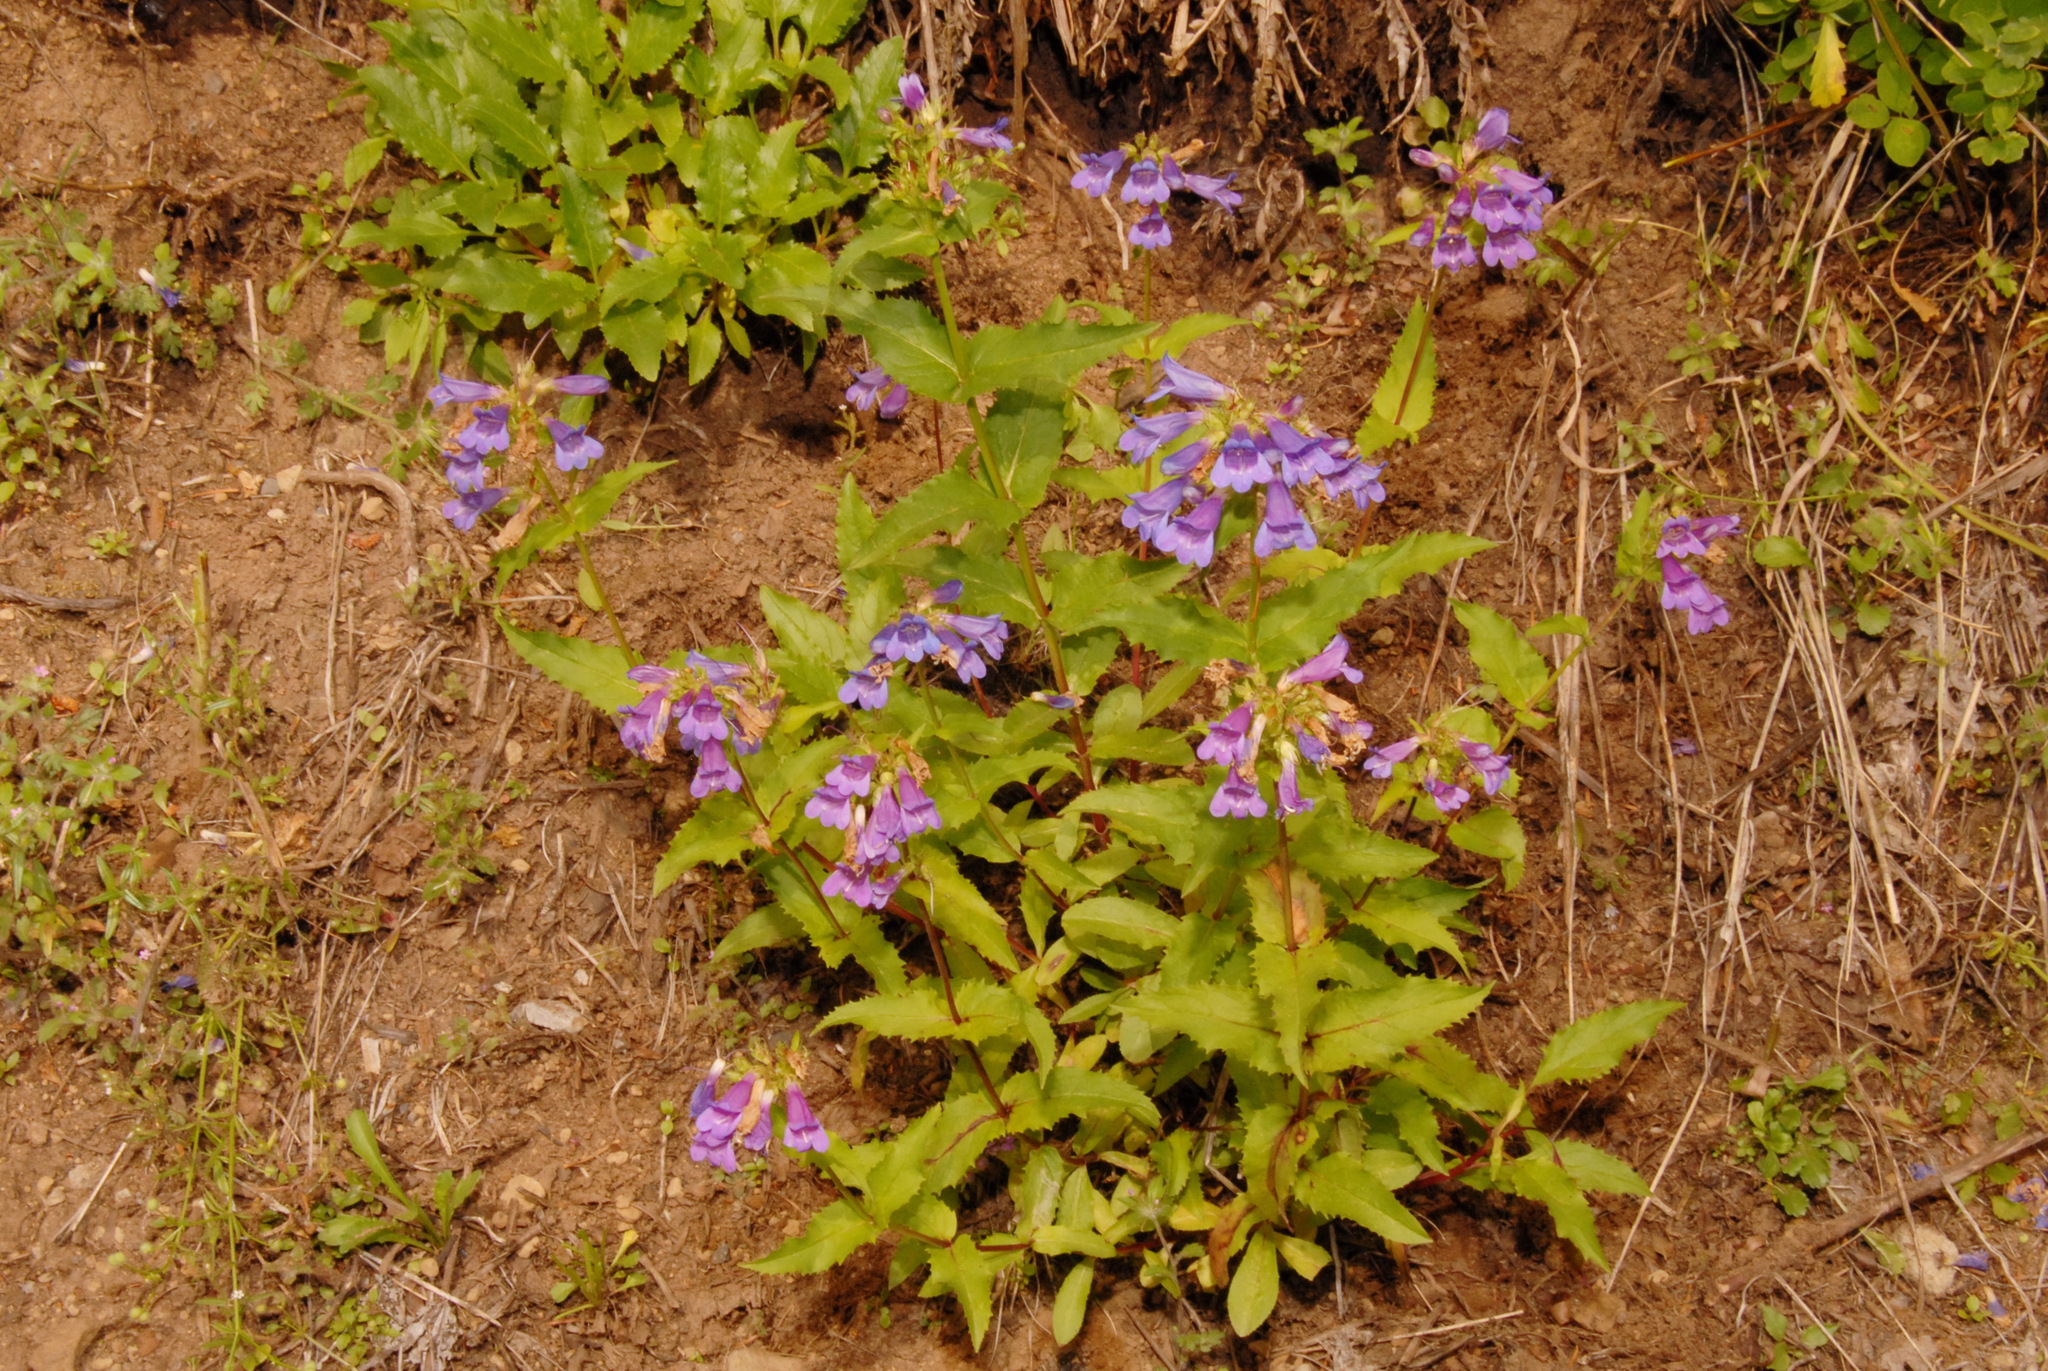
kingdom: Plantae
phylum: Tracheophyta
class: Magnoliopsida
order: Lamiales
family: Plantaginaceae
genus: Penstemon
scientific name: Penstemon serrulatus
